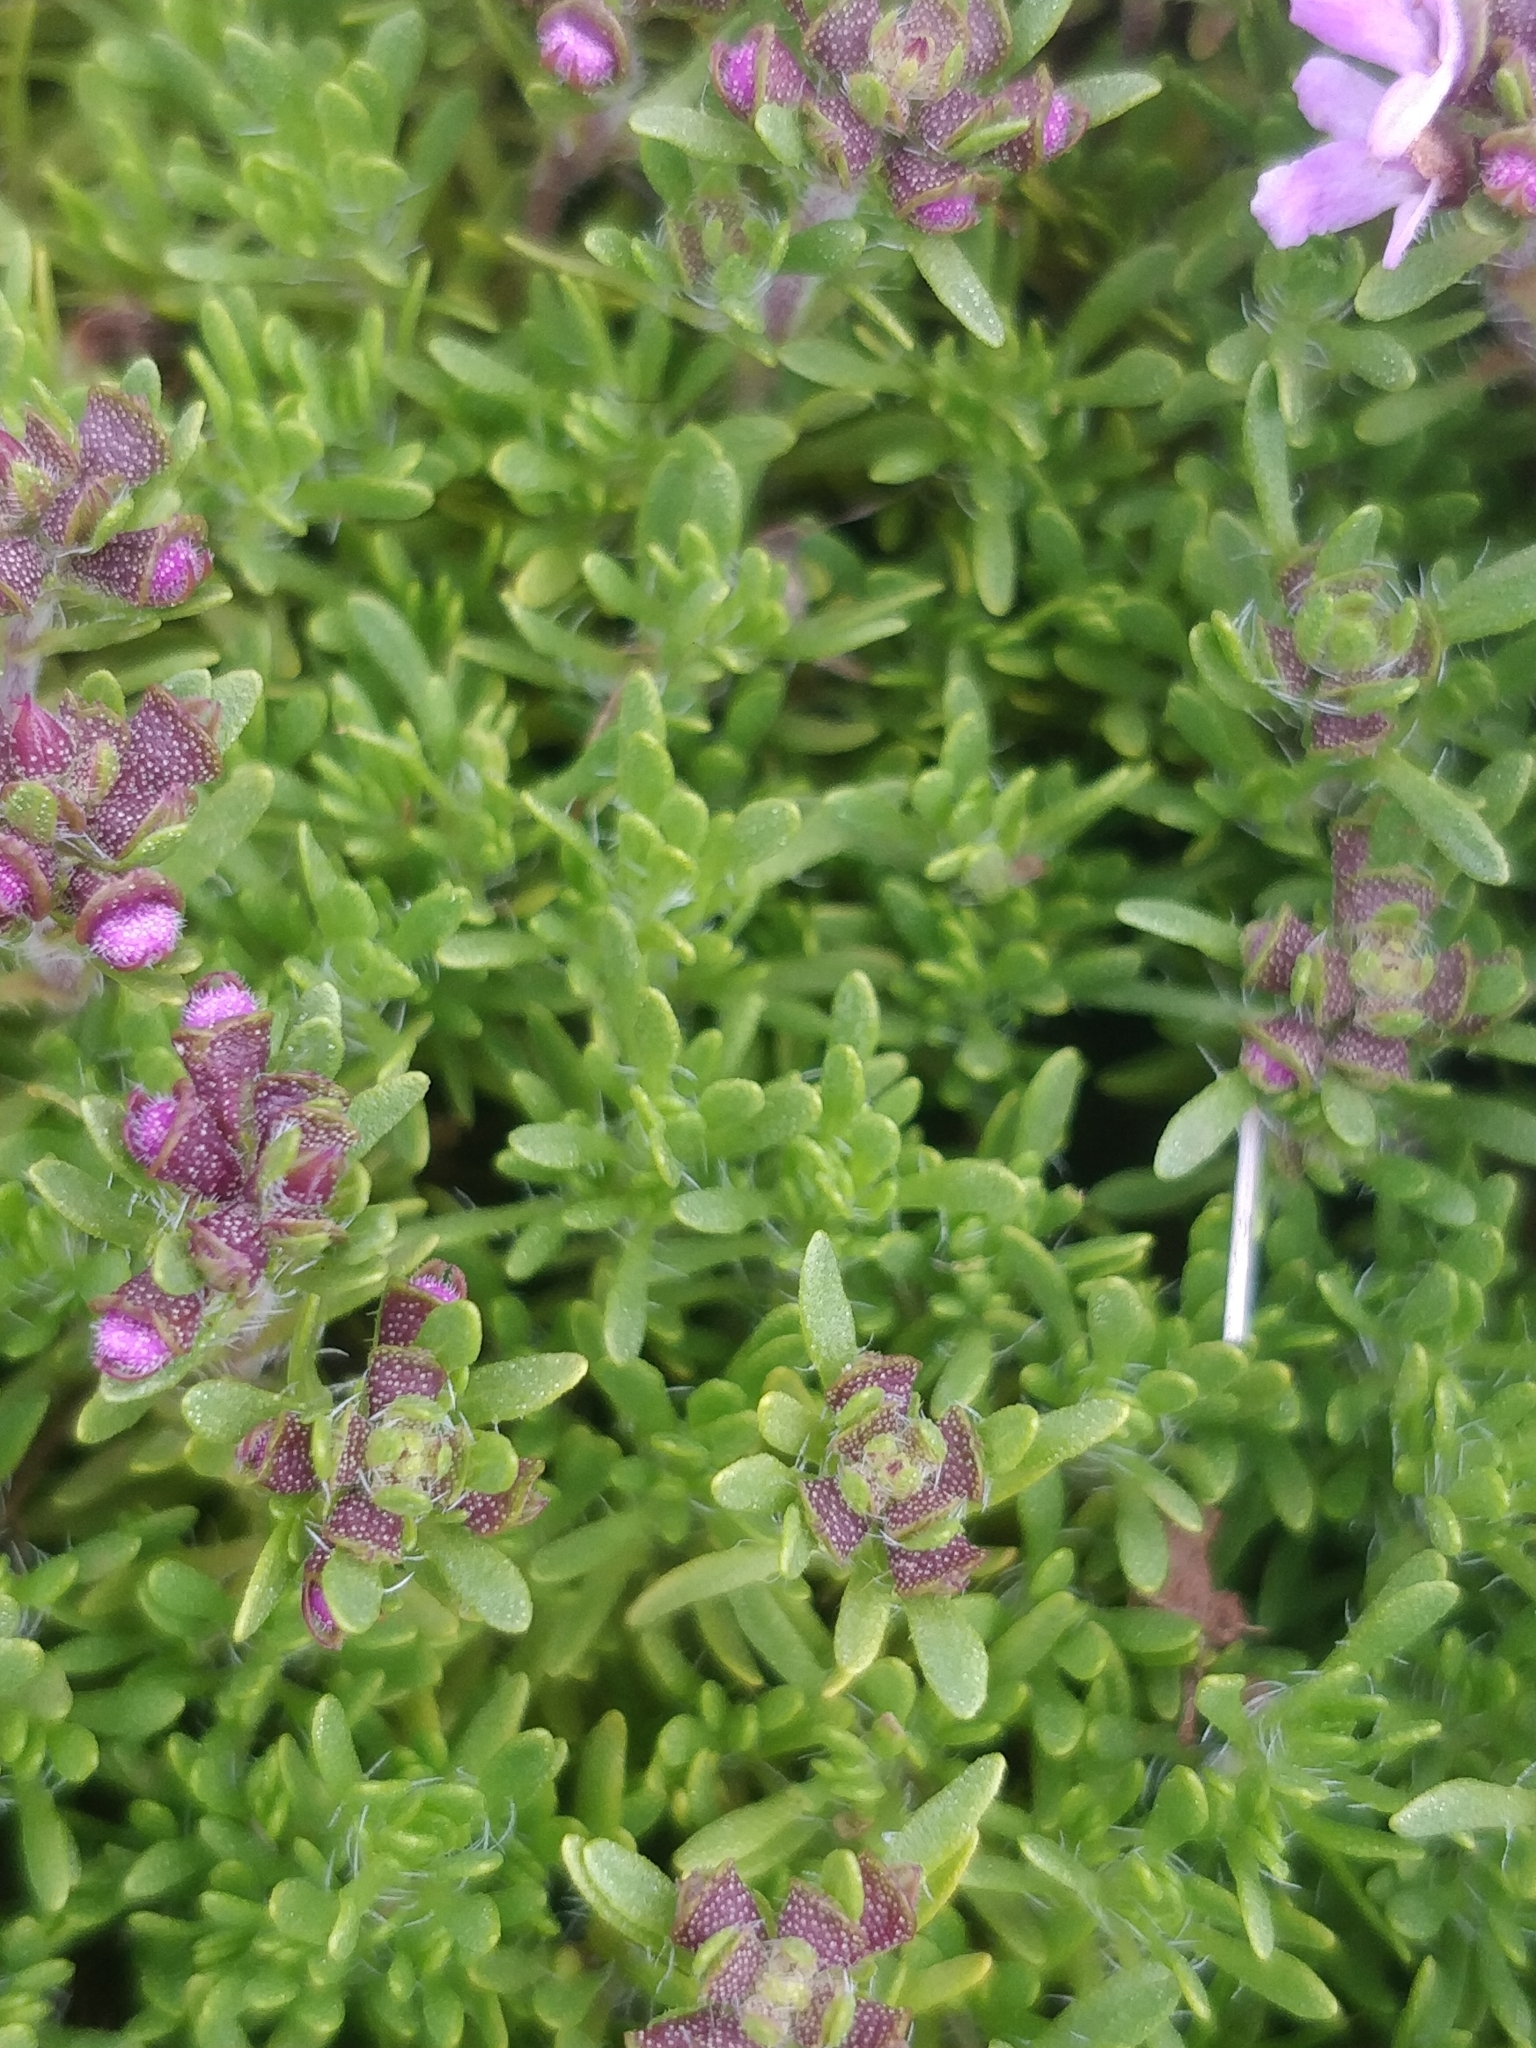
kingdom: Plantae
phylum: Tracheophyta
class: Magnoliopsida
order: Lamiales
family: Lamiaceae
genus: Thymus
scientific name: Thymus caespititius
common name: Azores thyme
